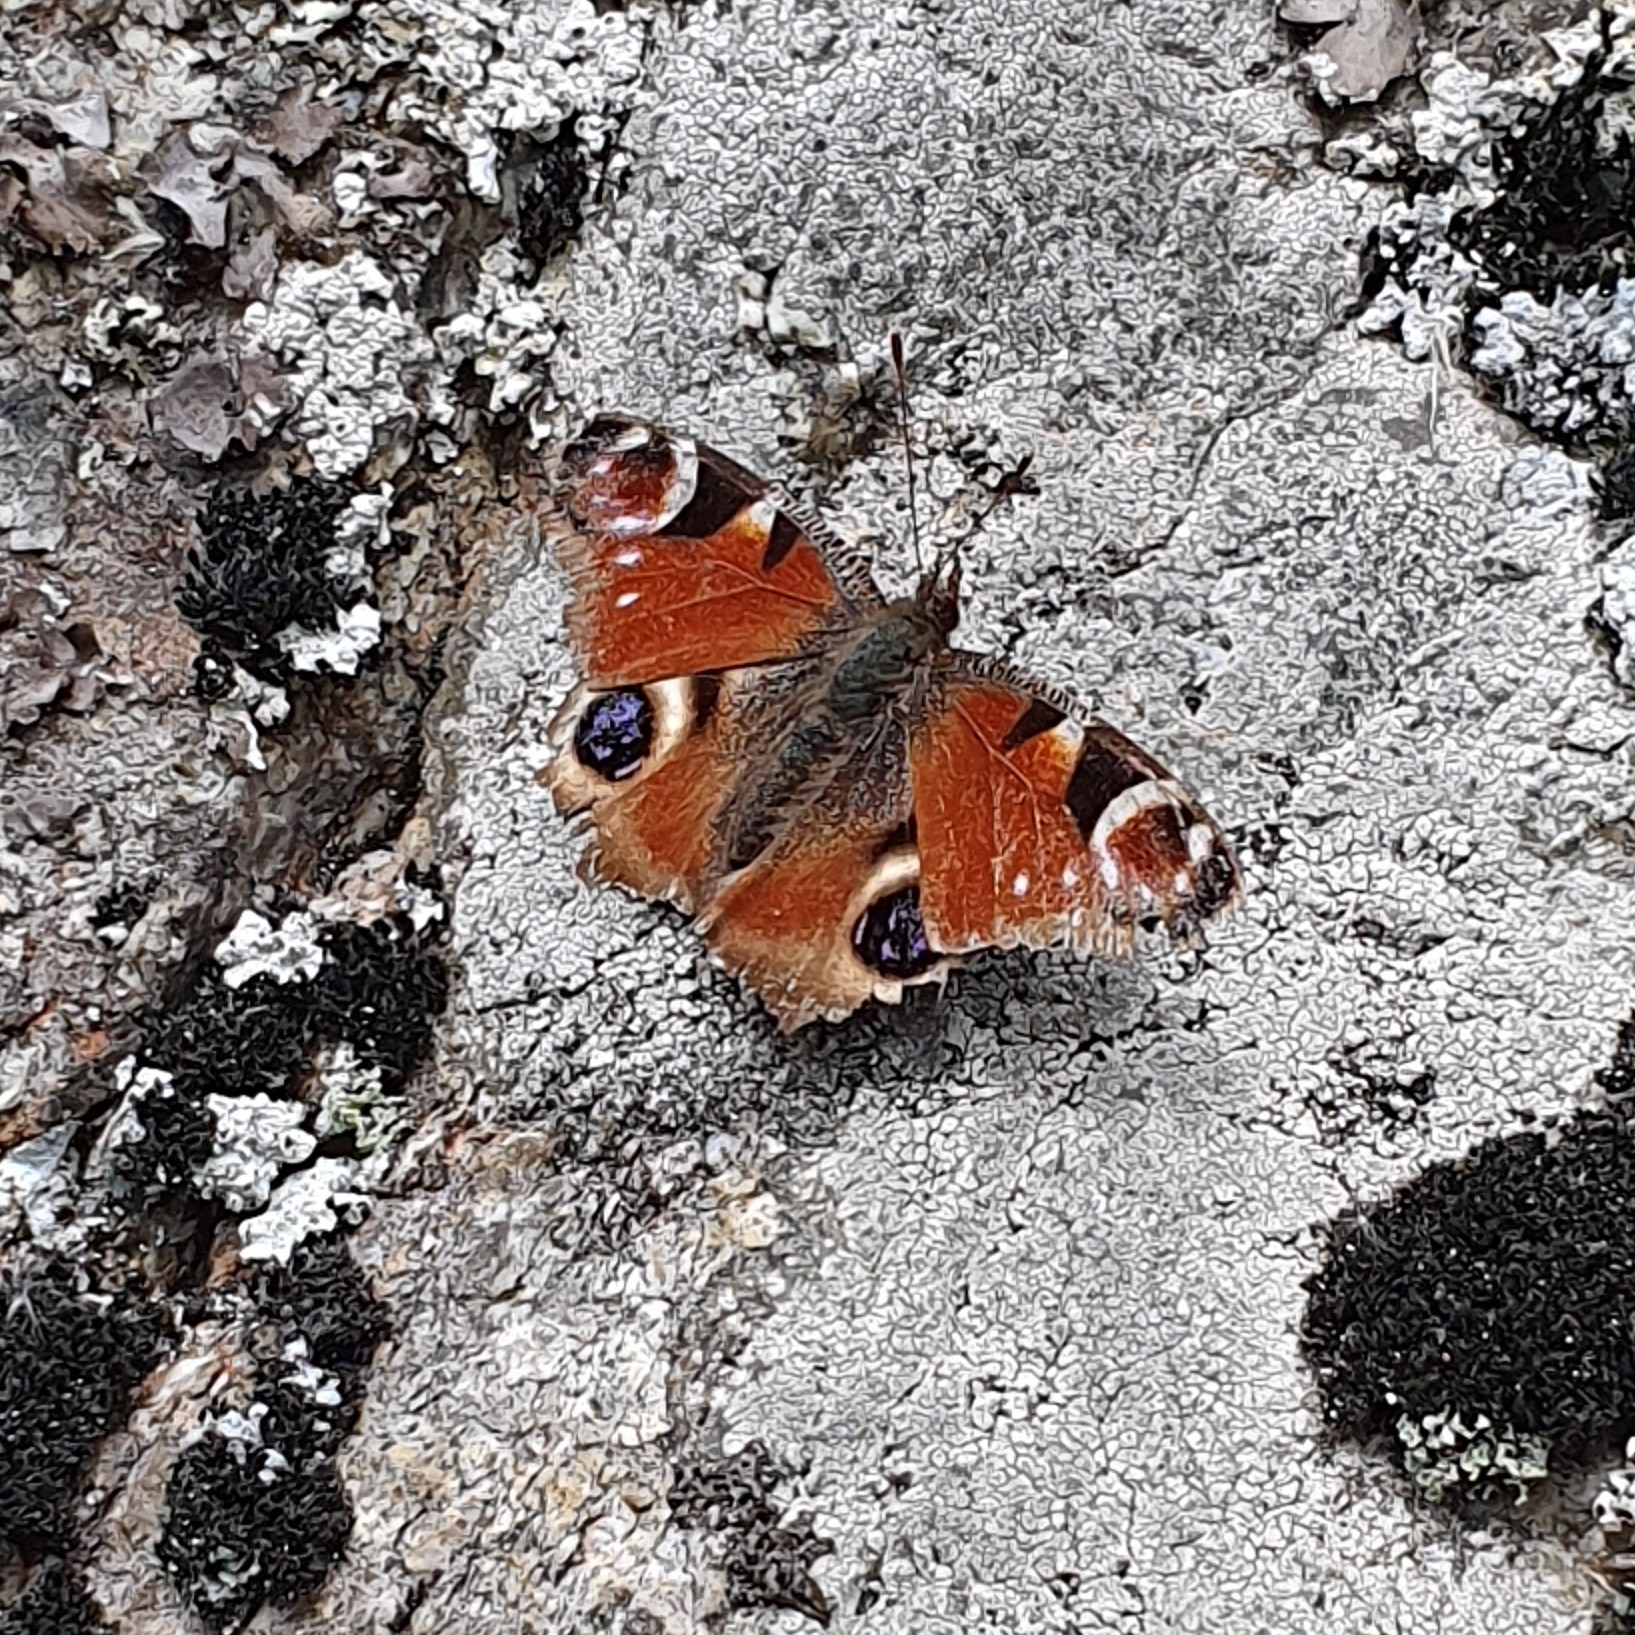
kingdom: Animalia
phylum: Arthropoda
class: Insecta
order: Lepidoptera
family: Nymphalidae
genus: Aglais
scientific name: Aglais io
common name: Peacock
